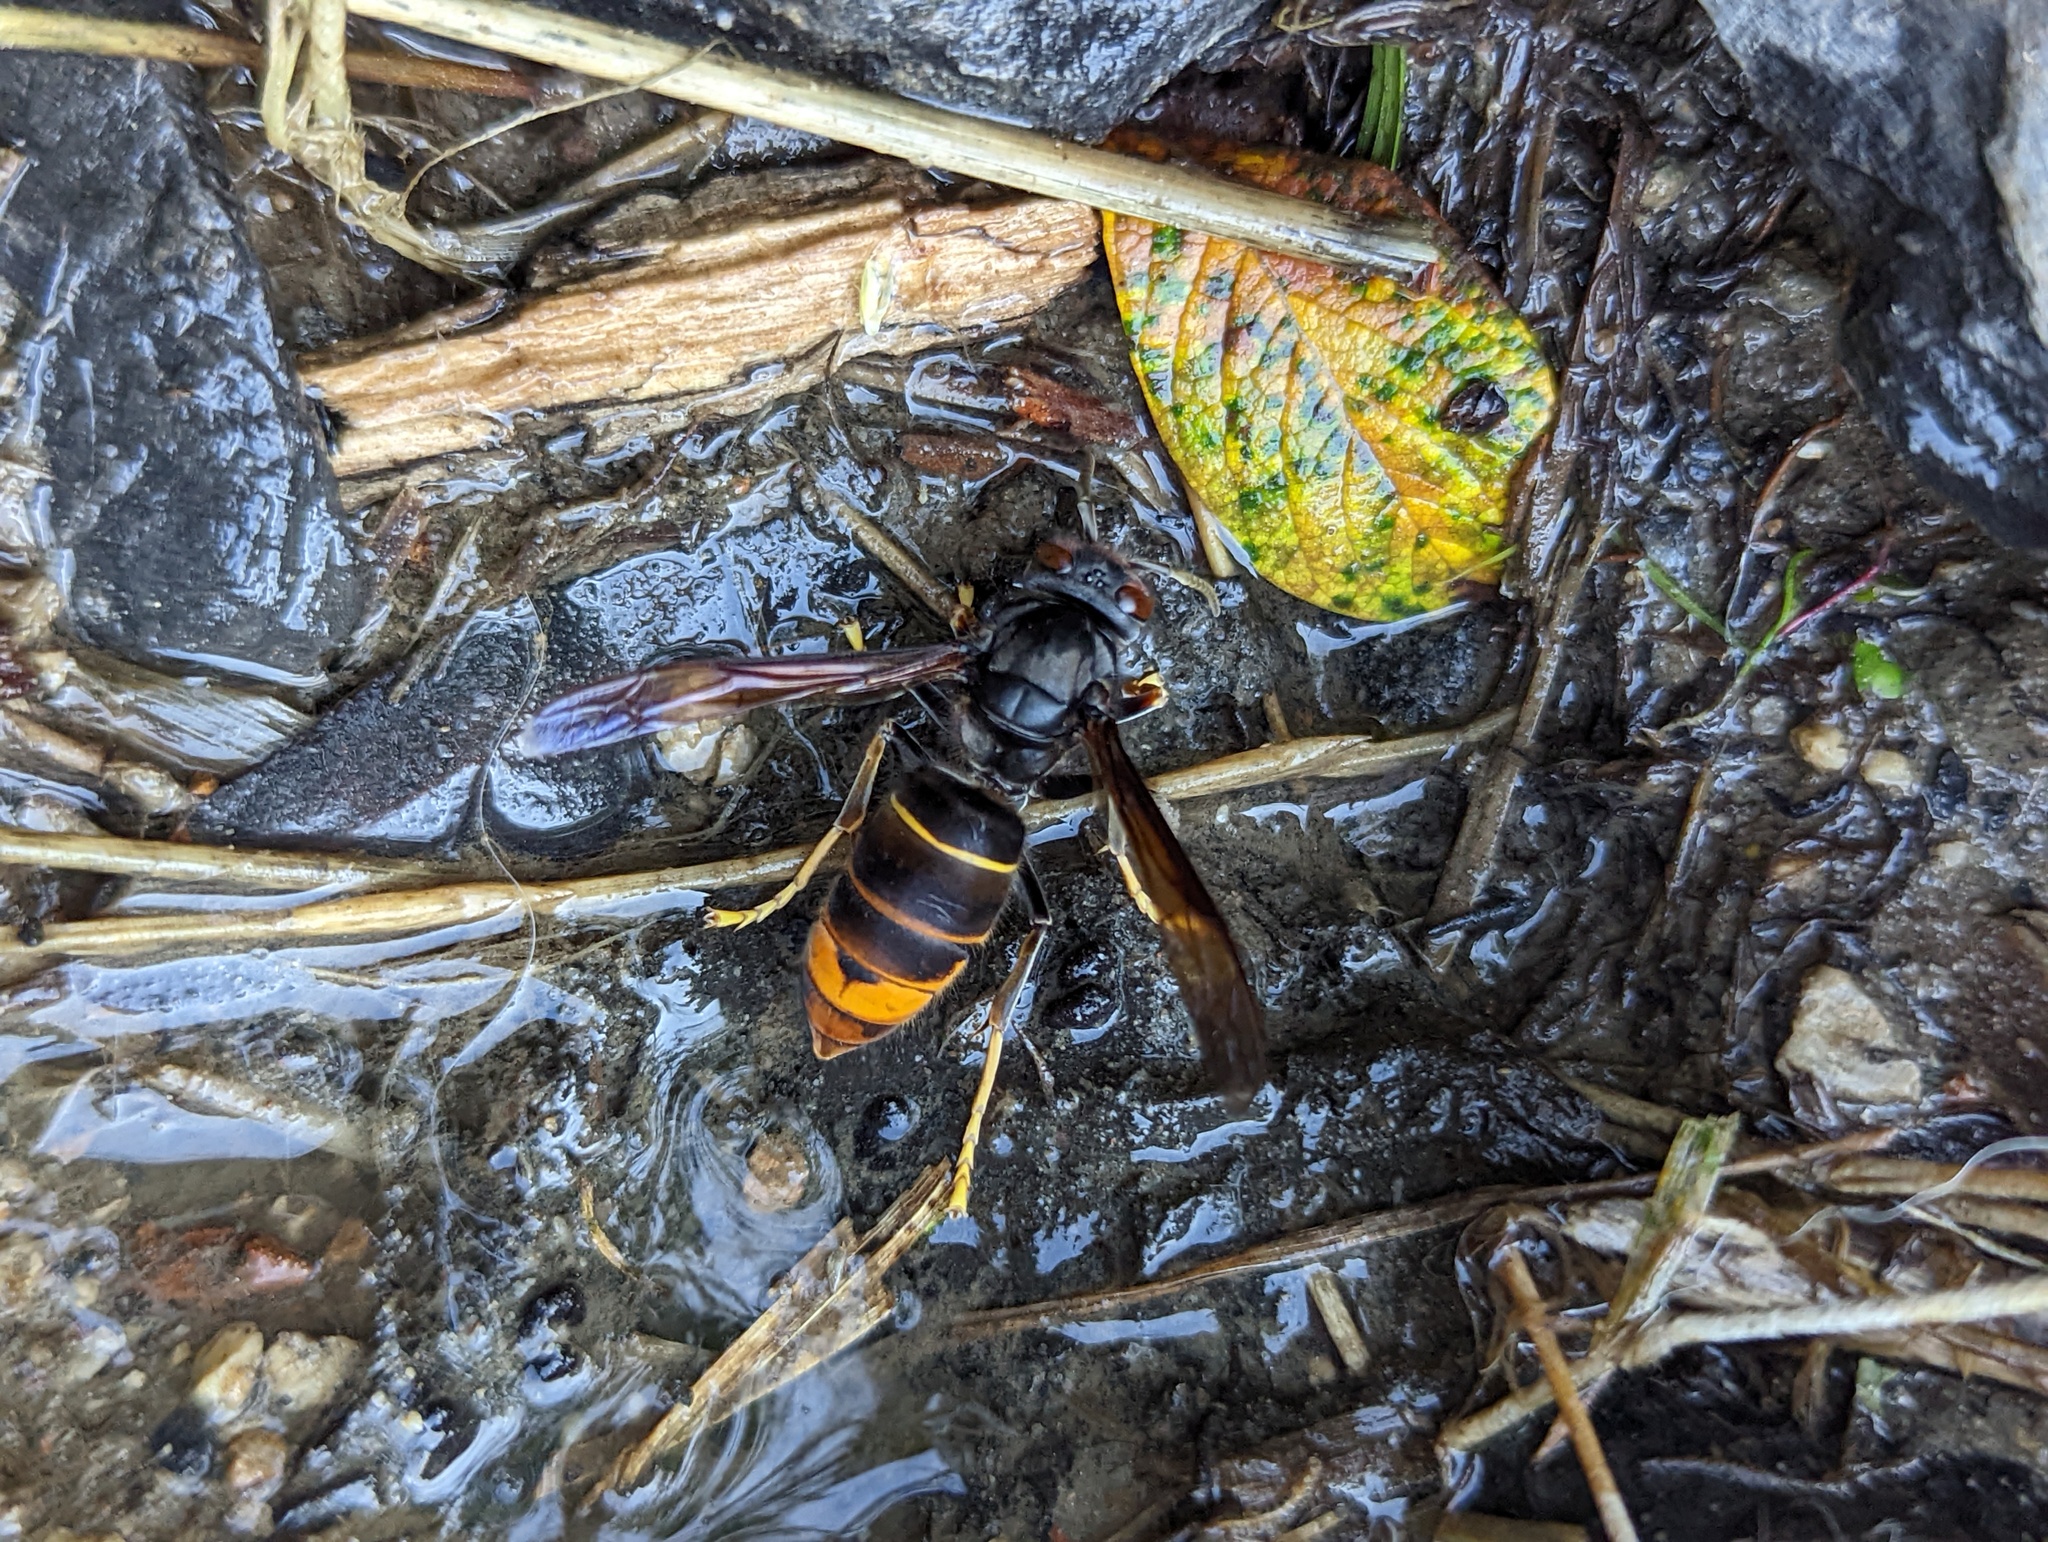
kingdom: Animalia
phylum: Arthropoda
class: Insecta
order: Hymenoptera
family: Vespidae
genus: Vespa
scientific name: Vespa velutina
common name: Asian hornet
